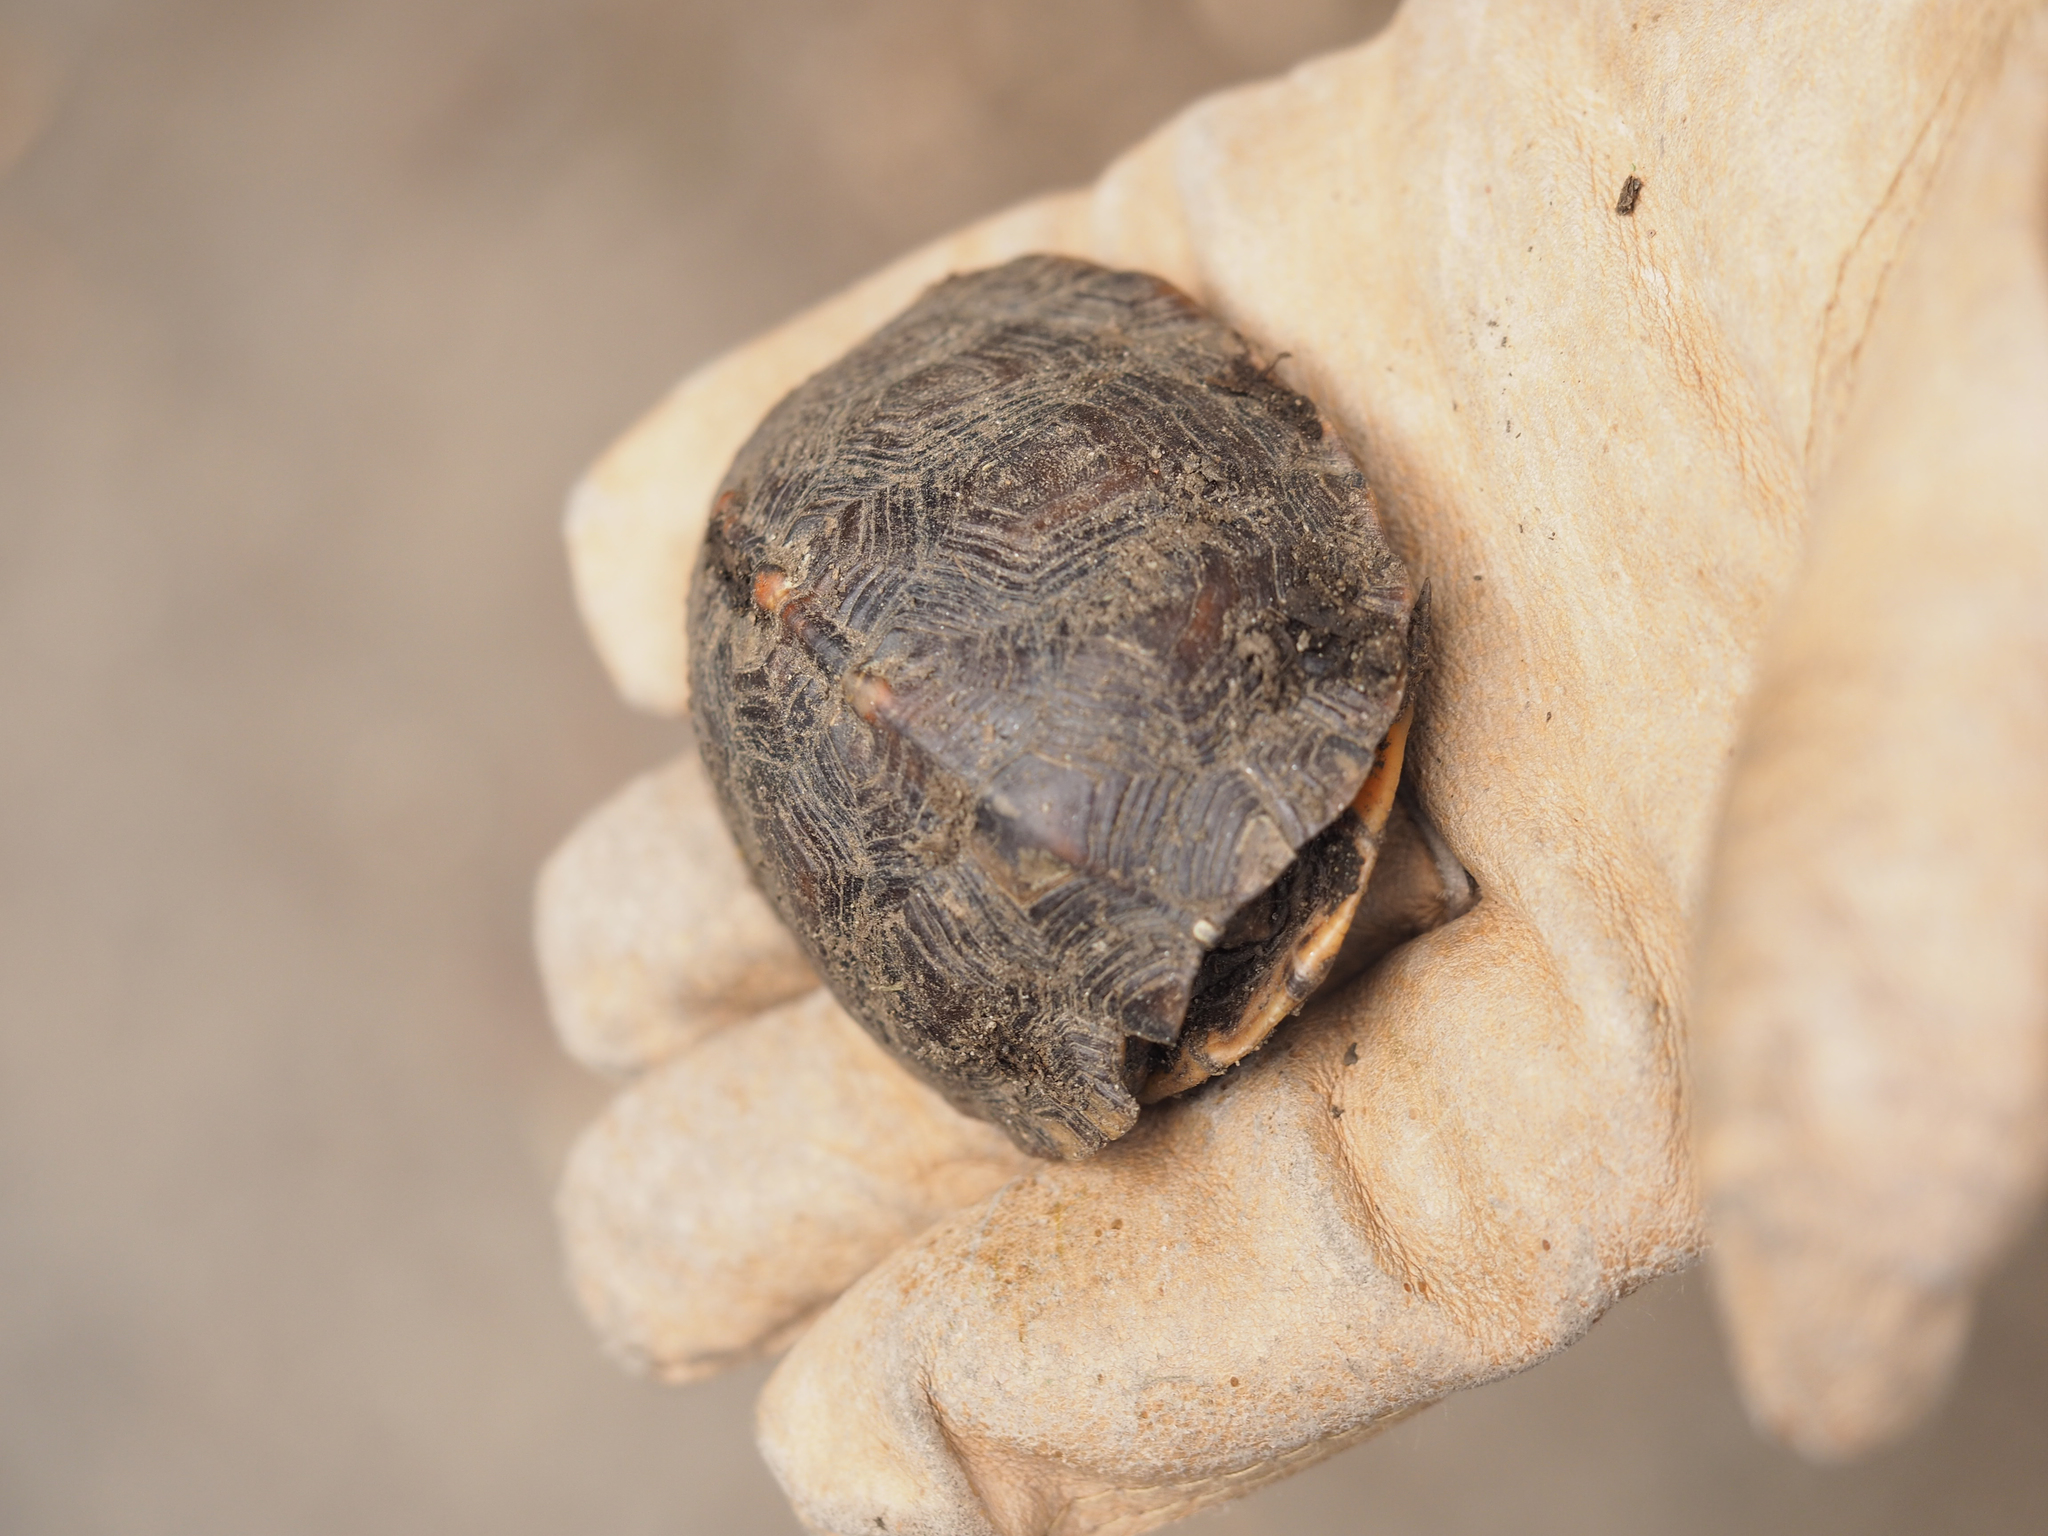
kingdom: Animalia
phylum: Chordata
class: Testudines
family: Emydidae
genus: Terrapene
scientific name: Terrapene carolina
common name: Common box turtle
